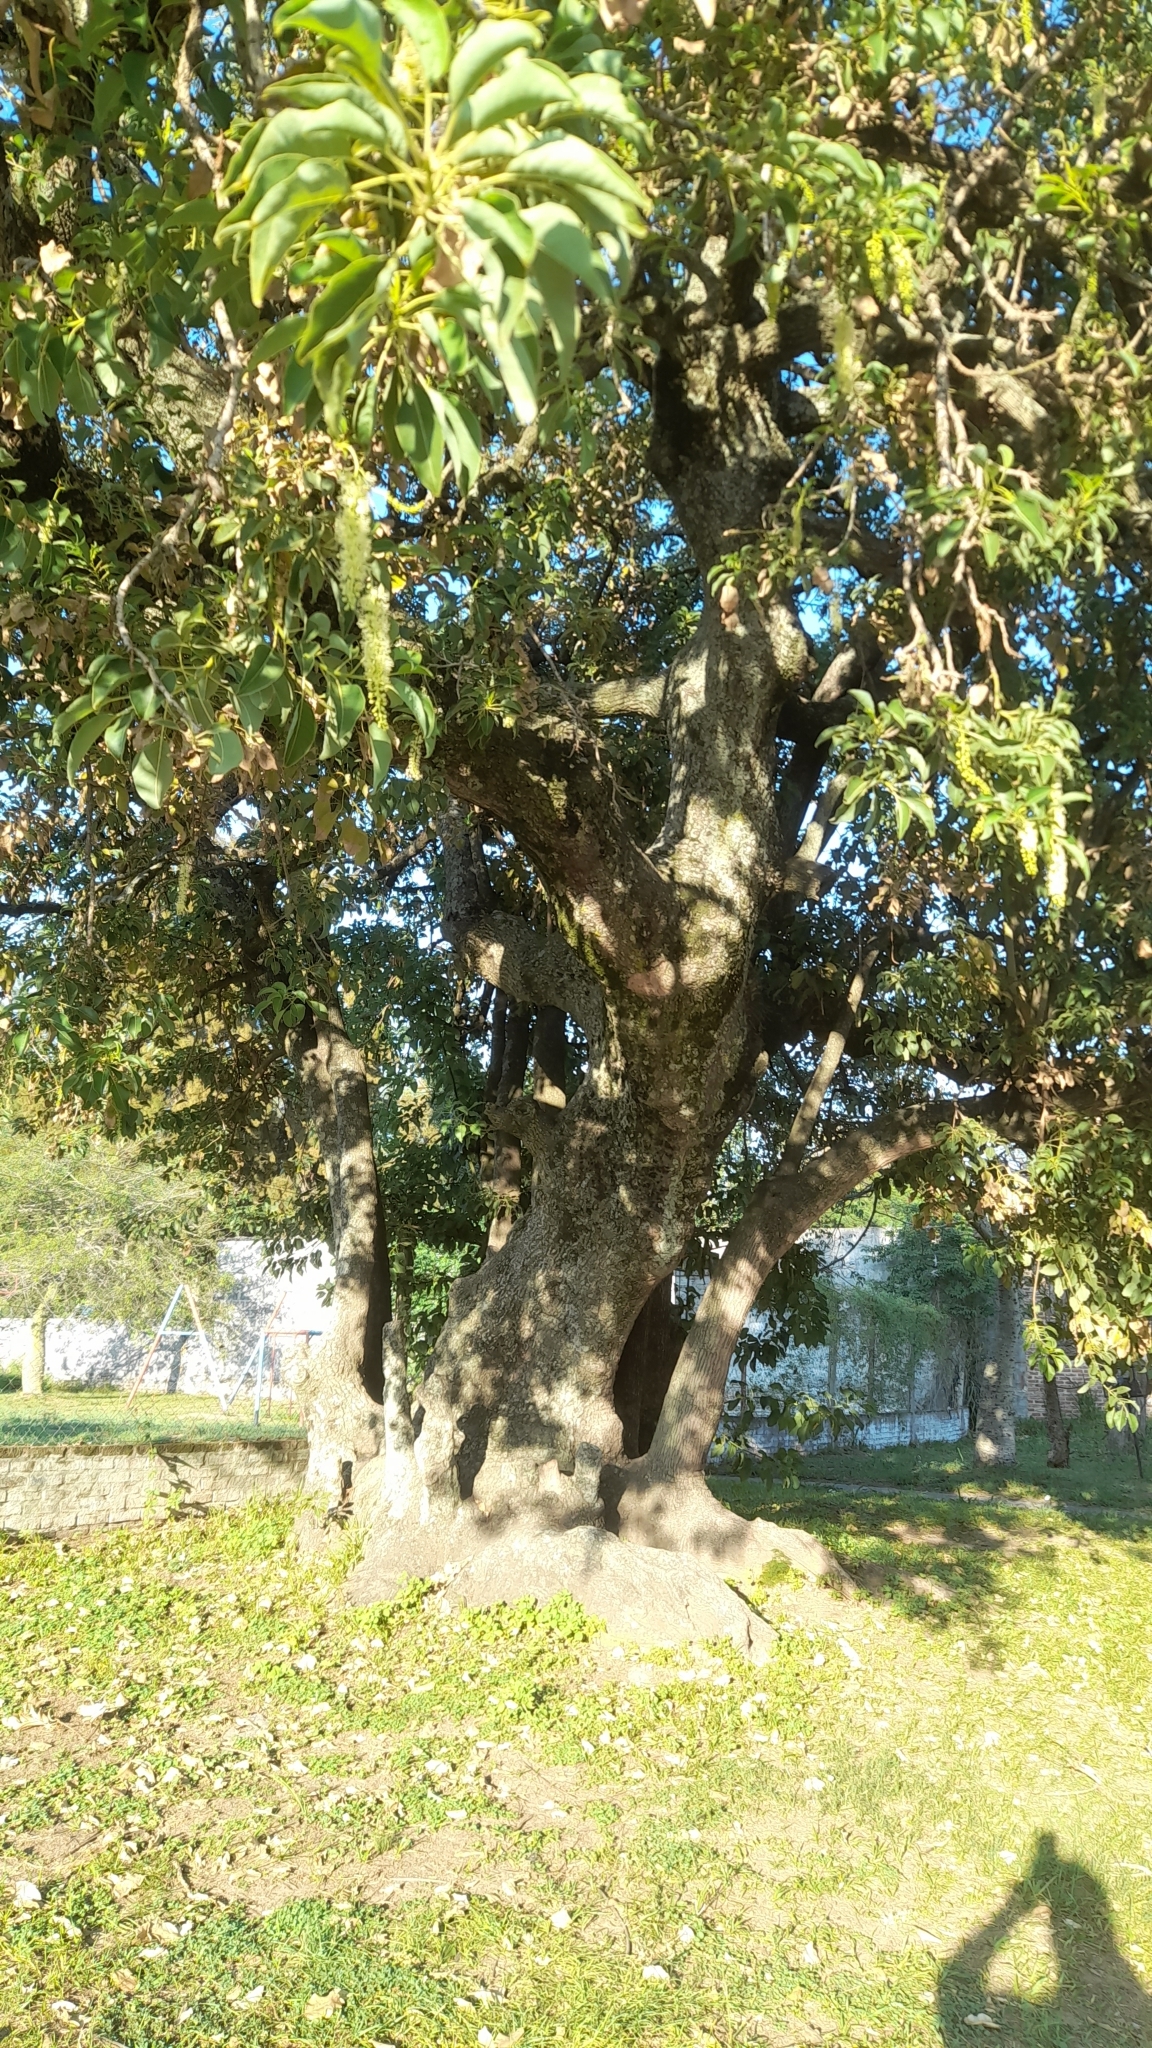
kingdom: Plantae
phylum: Tracheophyta
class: Magnoliopsida
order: Caryophyllales
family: Phytolaccaceae
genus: Phytolacca
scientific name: Phytolacca dioica
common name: Pokeweed
